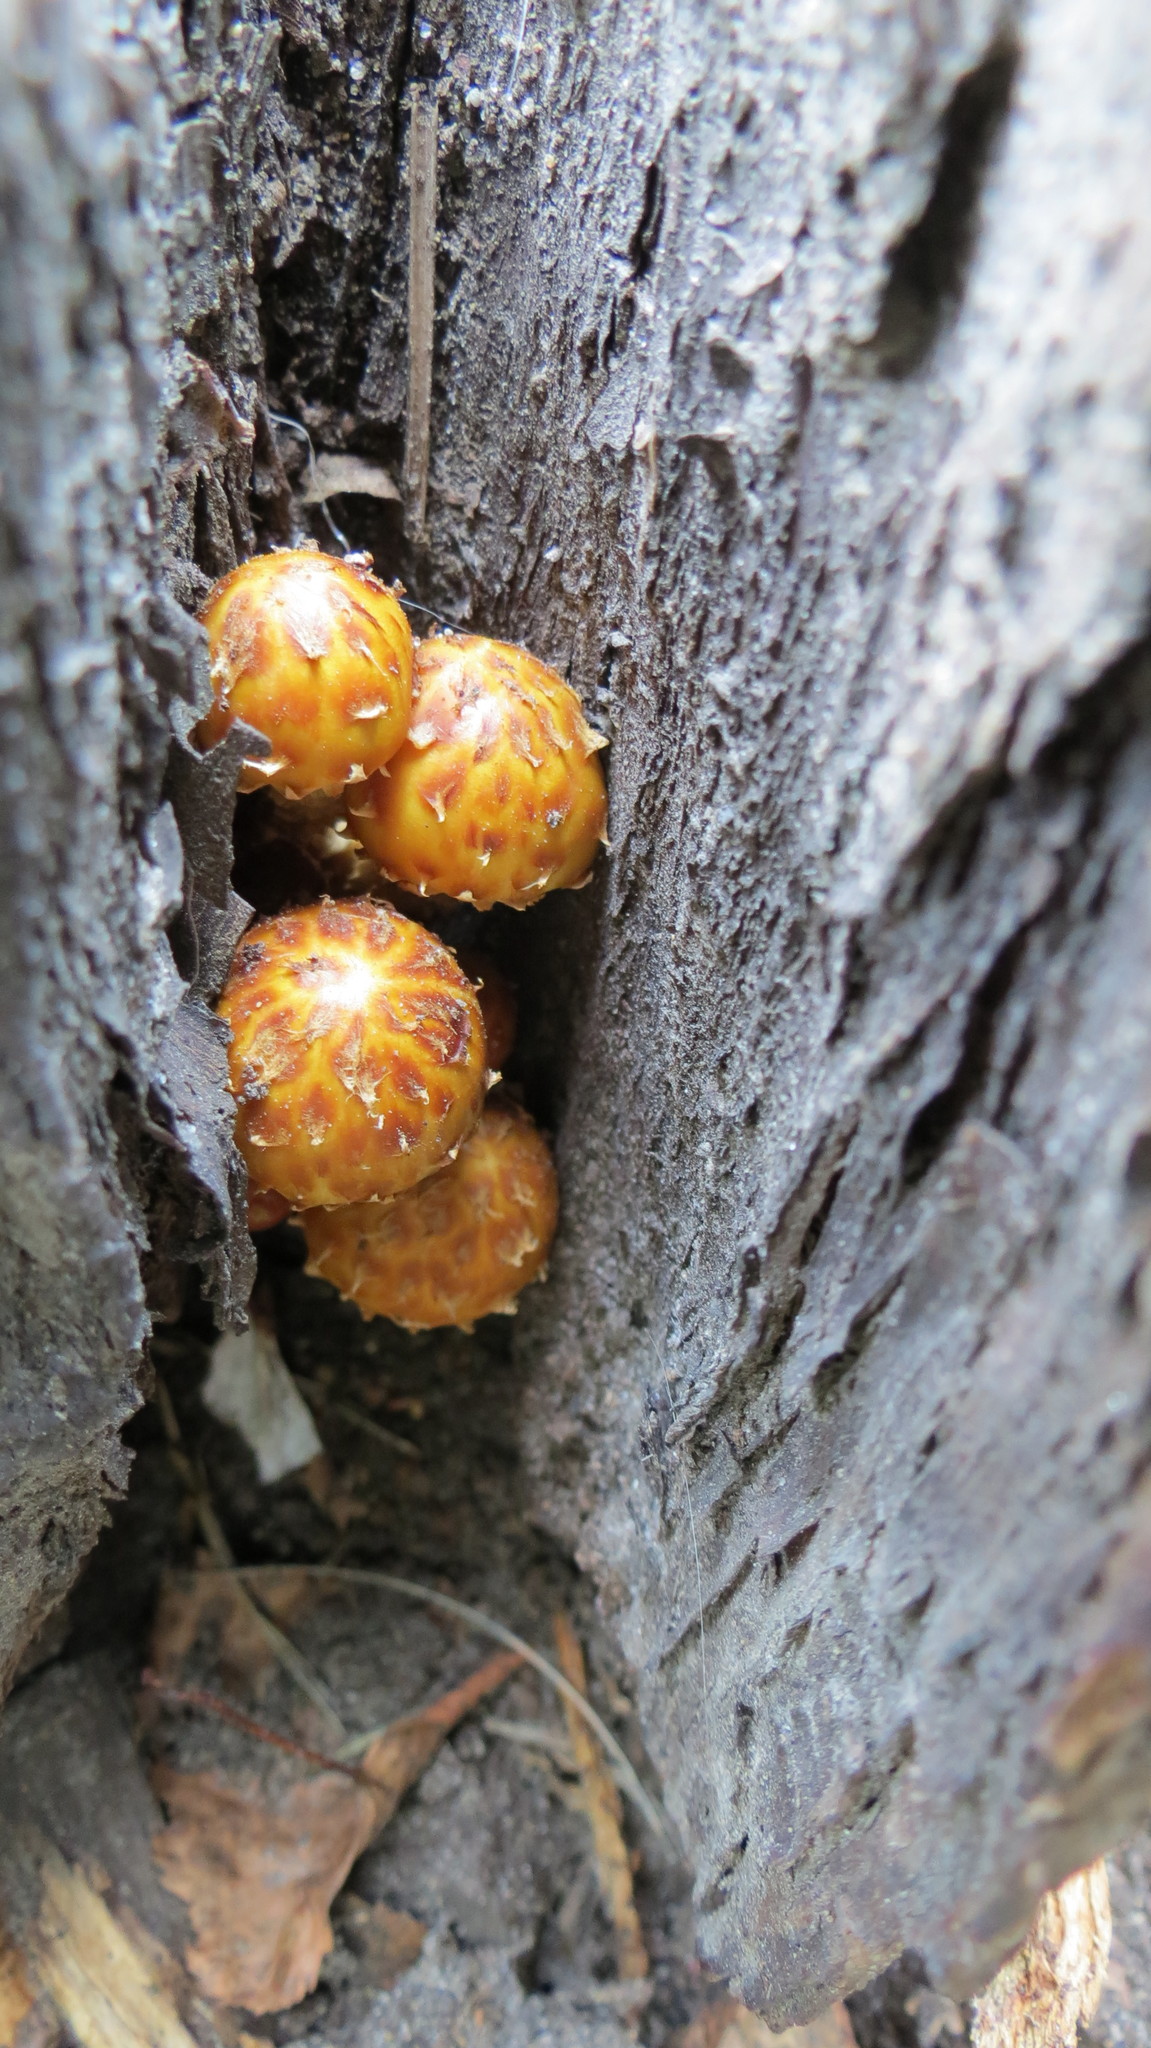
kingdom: Fungi
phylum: Basidiomycota
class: Agaricomycetes
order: Agaricales
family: Strophariaceae
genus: Pholiota
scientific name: Pholiota aurivella
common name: Golden scalycap
